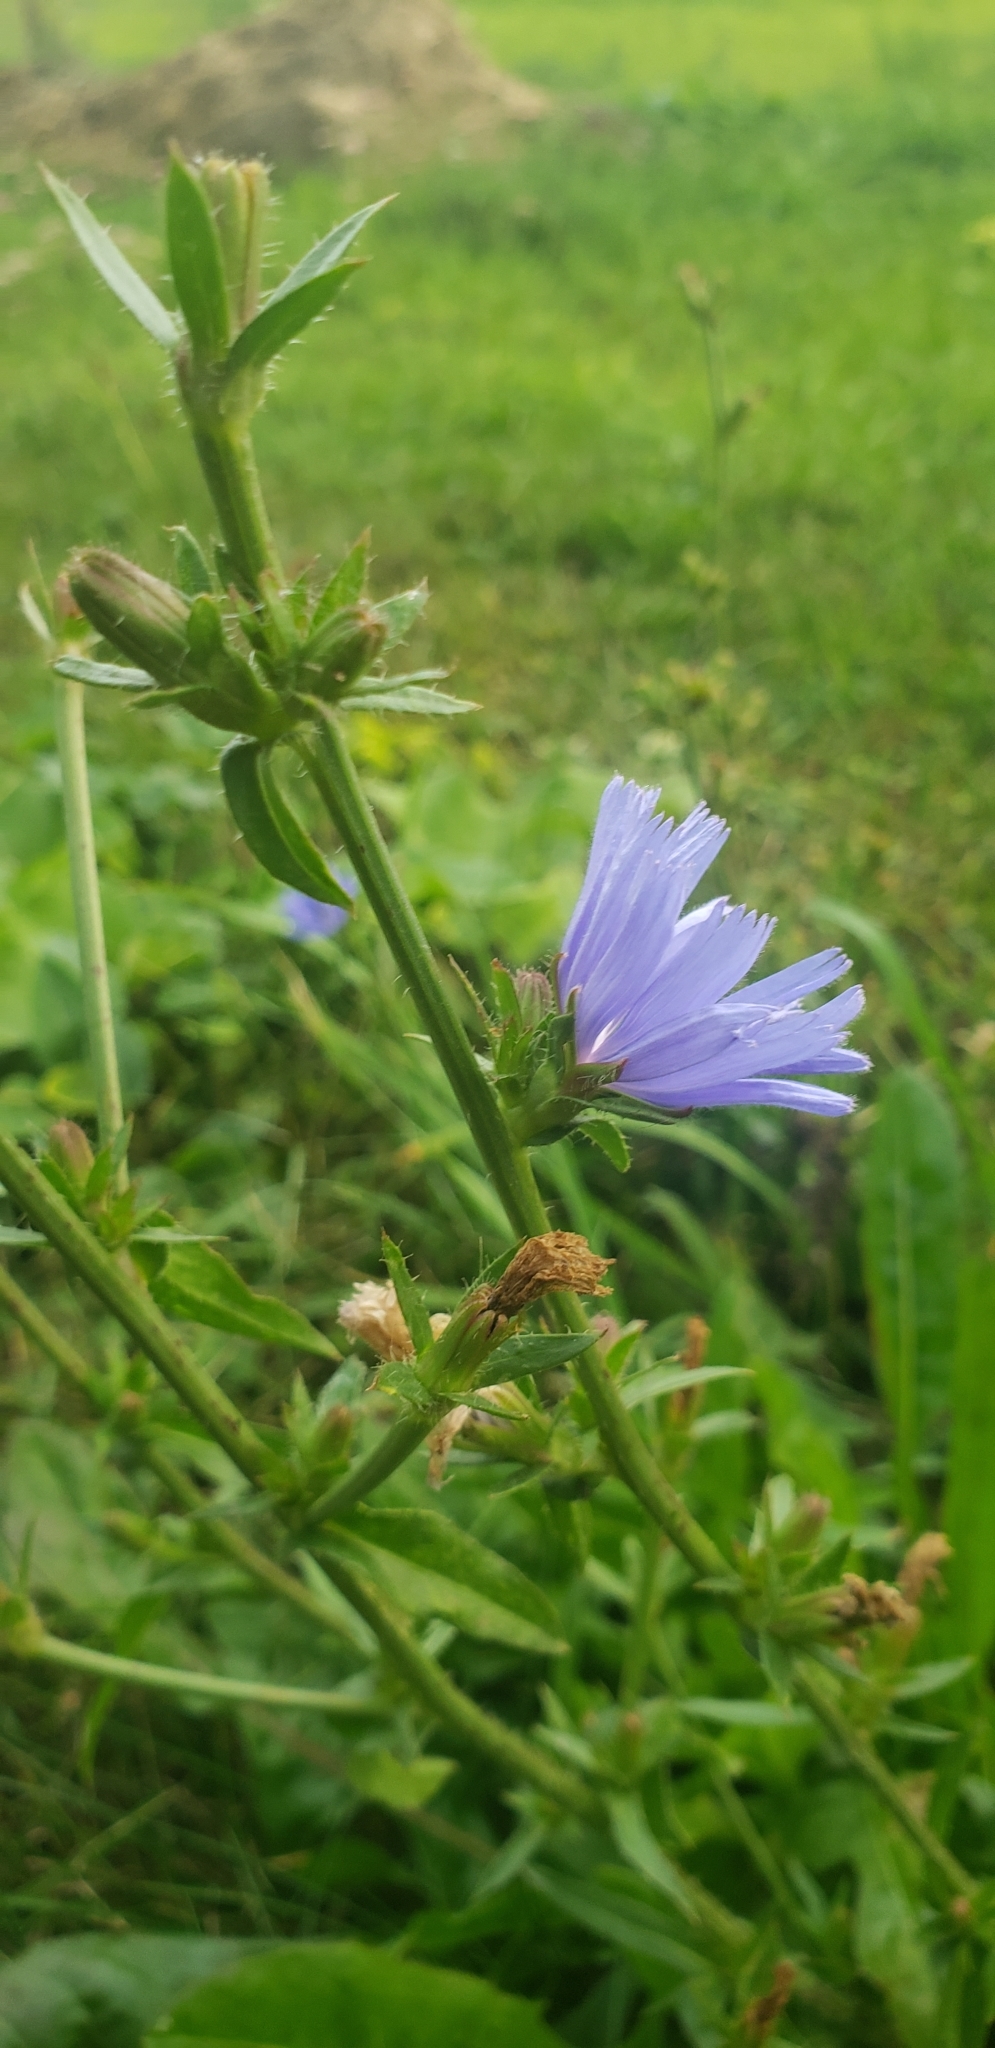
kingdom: Plantae
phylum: Tracheophyta
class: Magnoliopsida
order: Asterales
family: Asteraceae
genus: Cichorium
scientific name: Cichorium intybus
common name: Chicory
